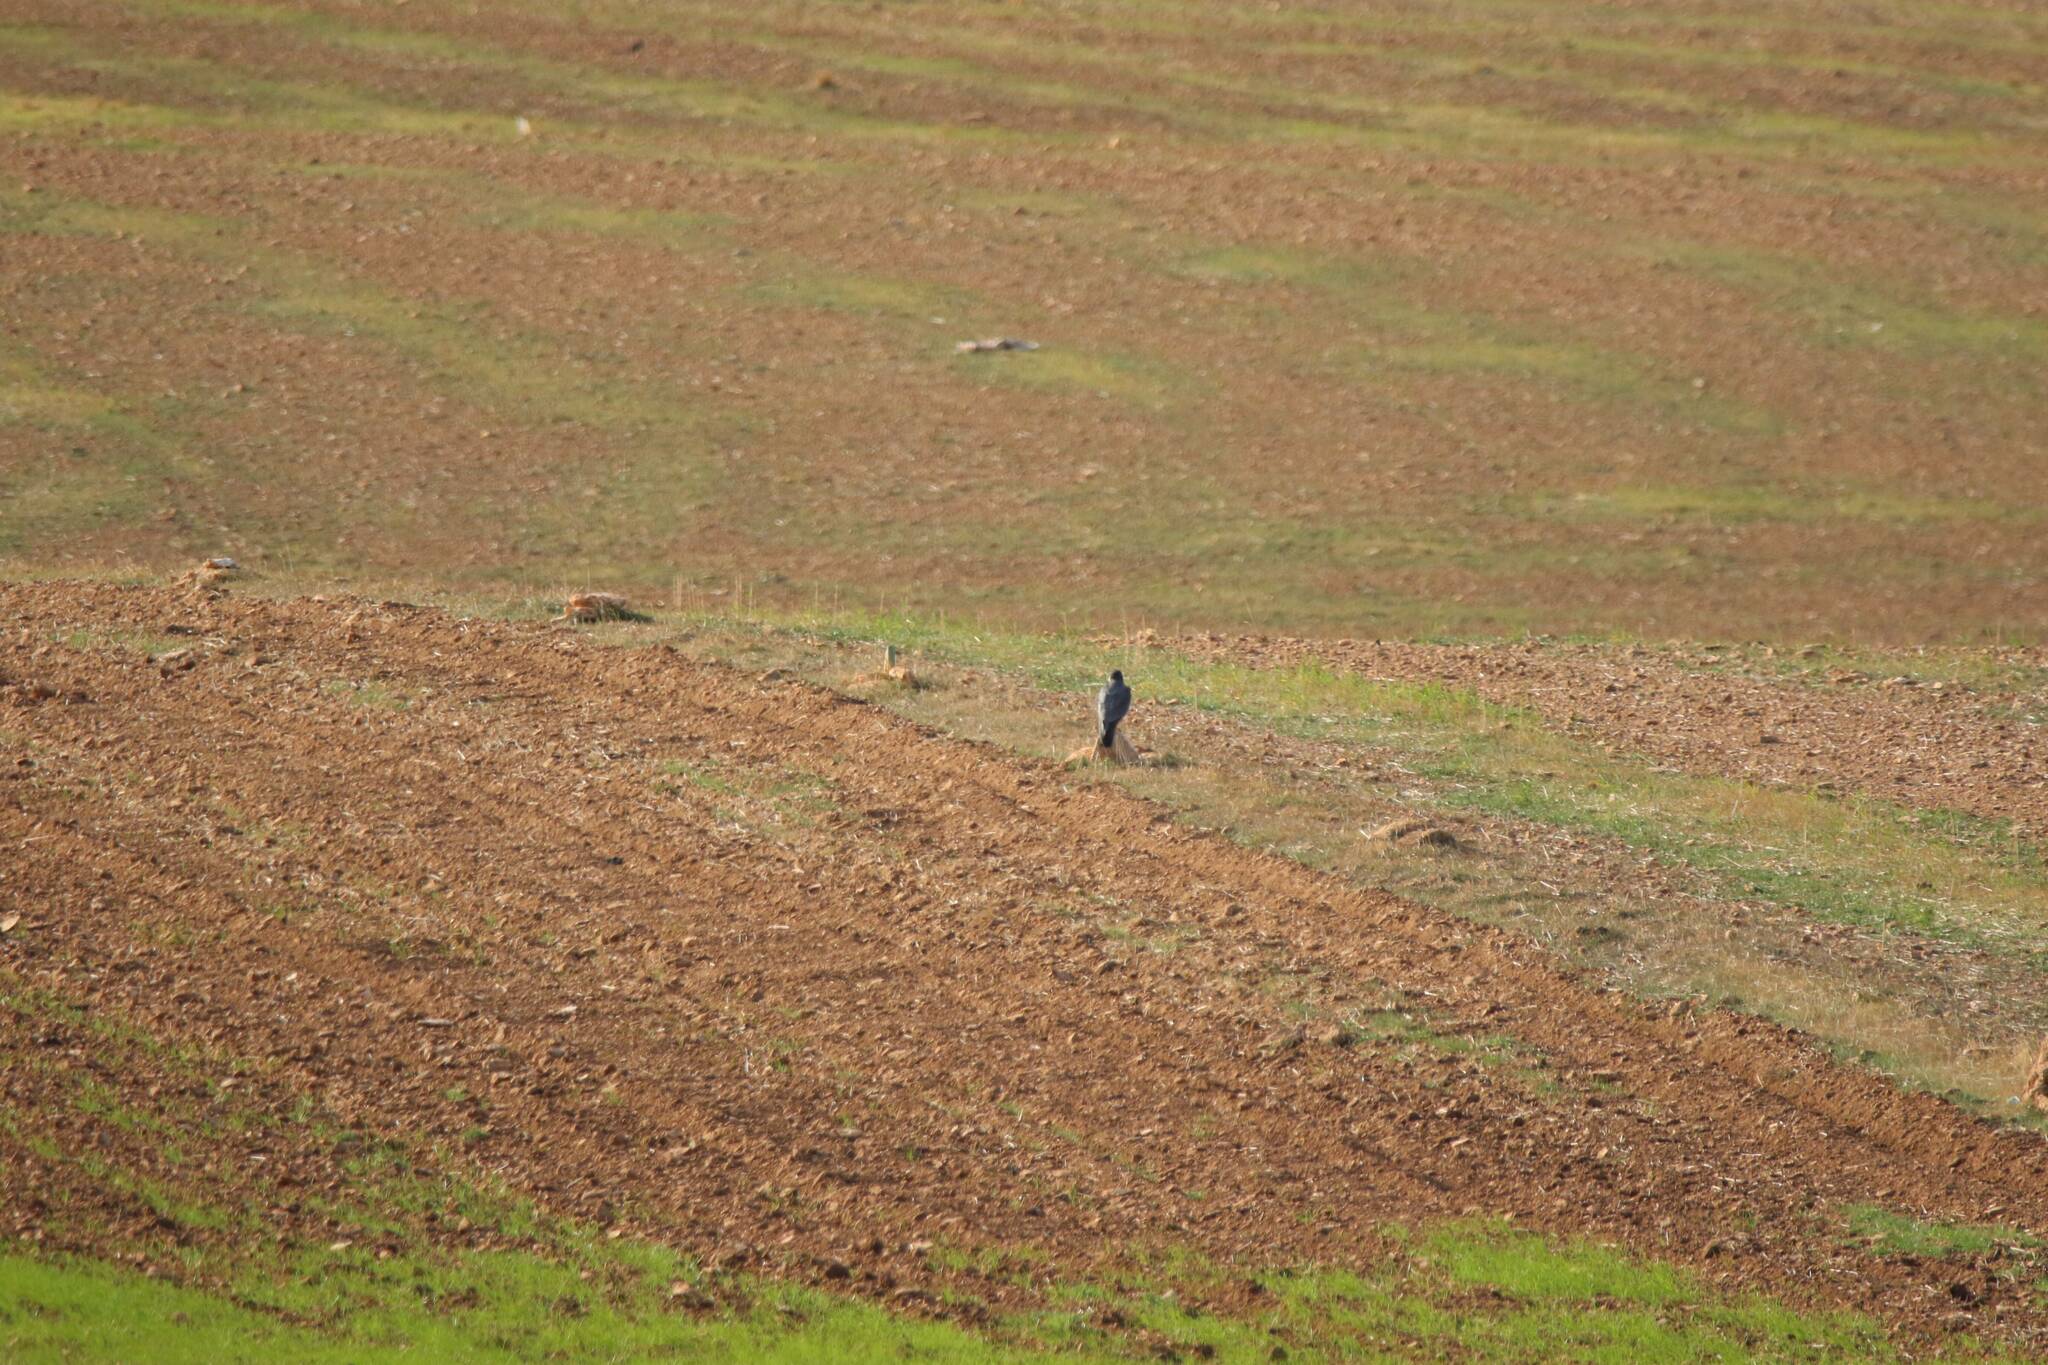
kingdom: Animalia
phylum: Chordata
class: Aves
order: Falconiformes
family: Falconidae
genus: Falco
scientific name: Falco peregrinus
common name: Peregrine falcon
